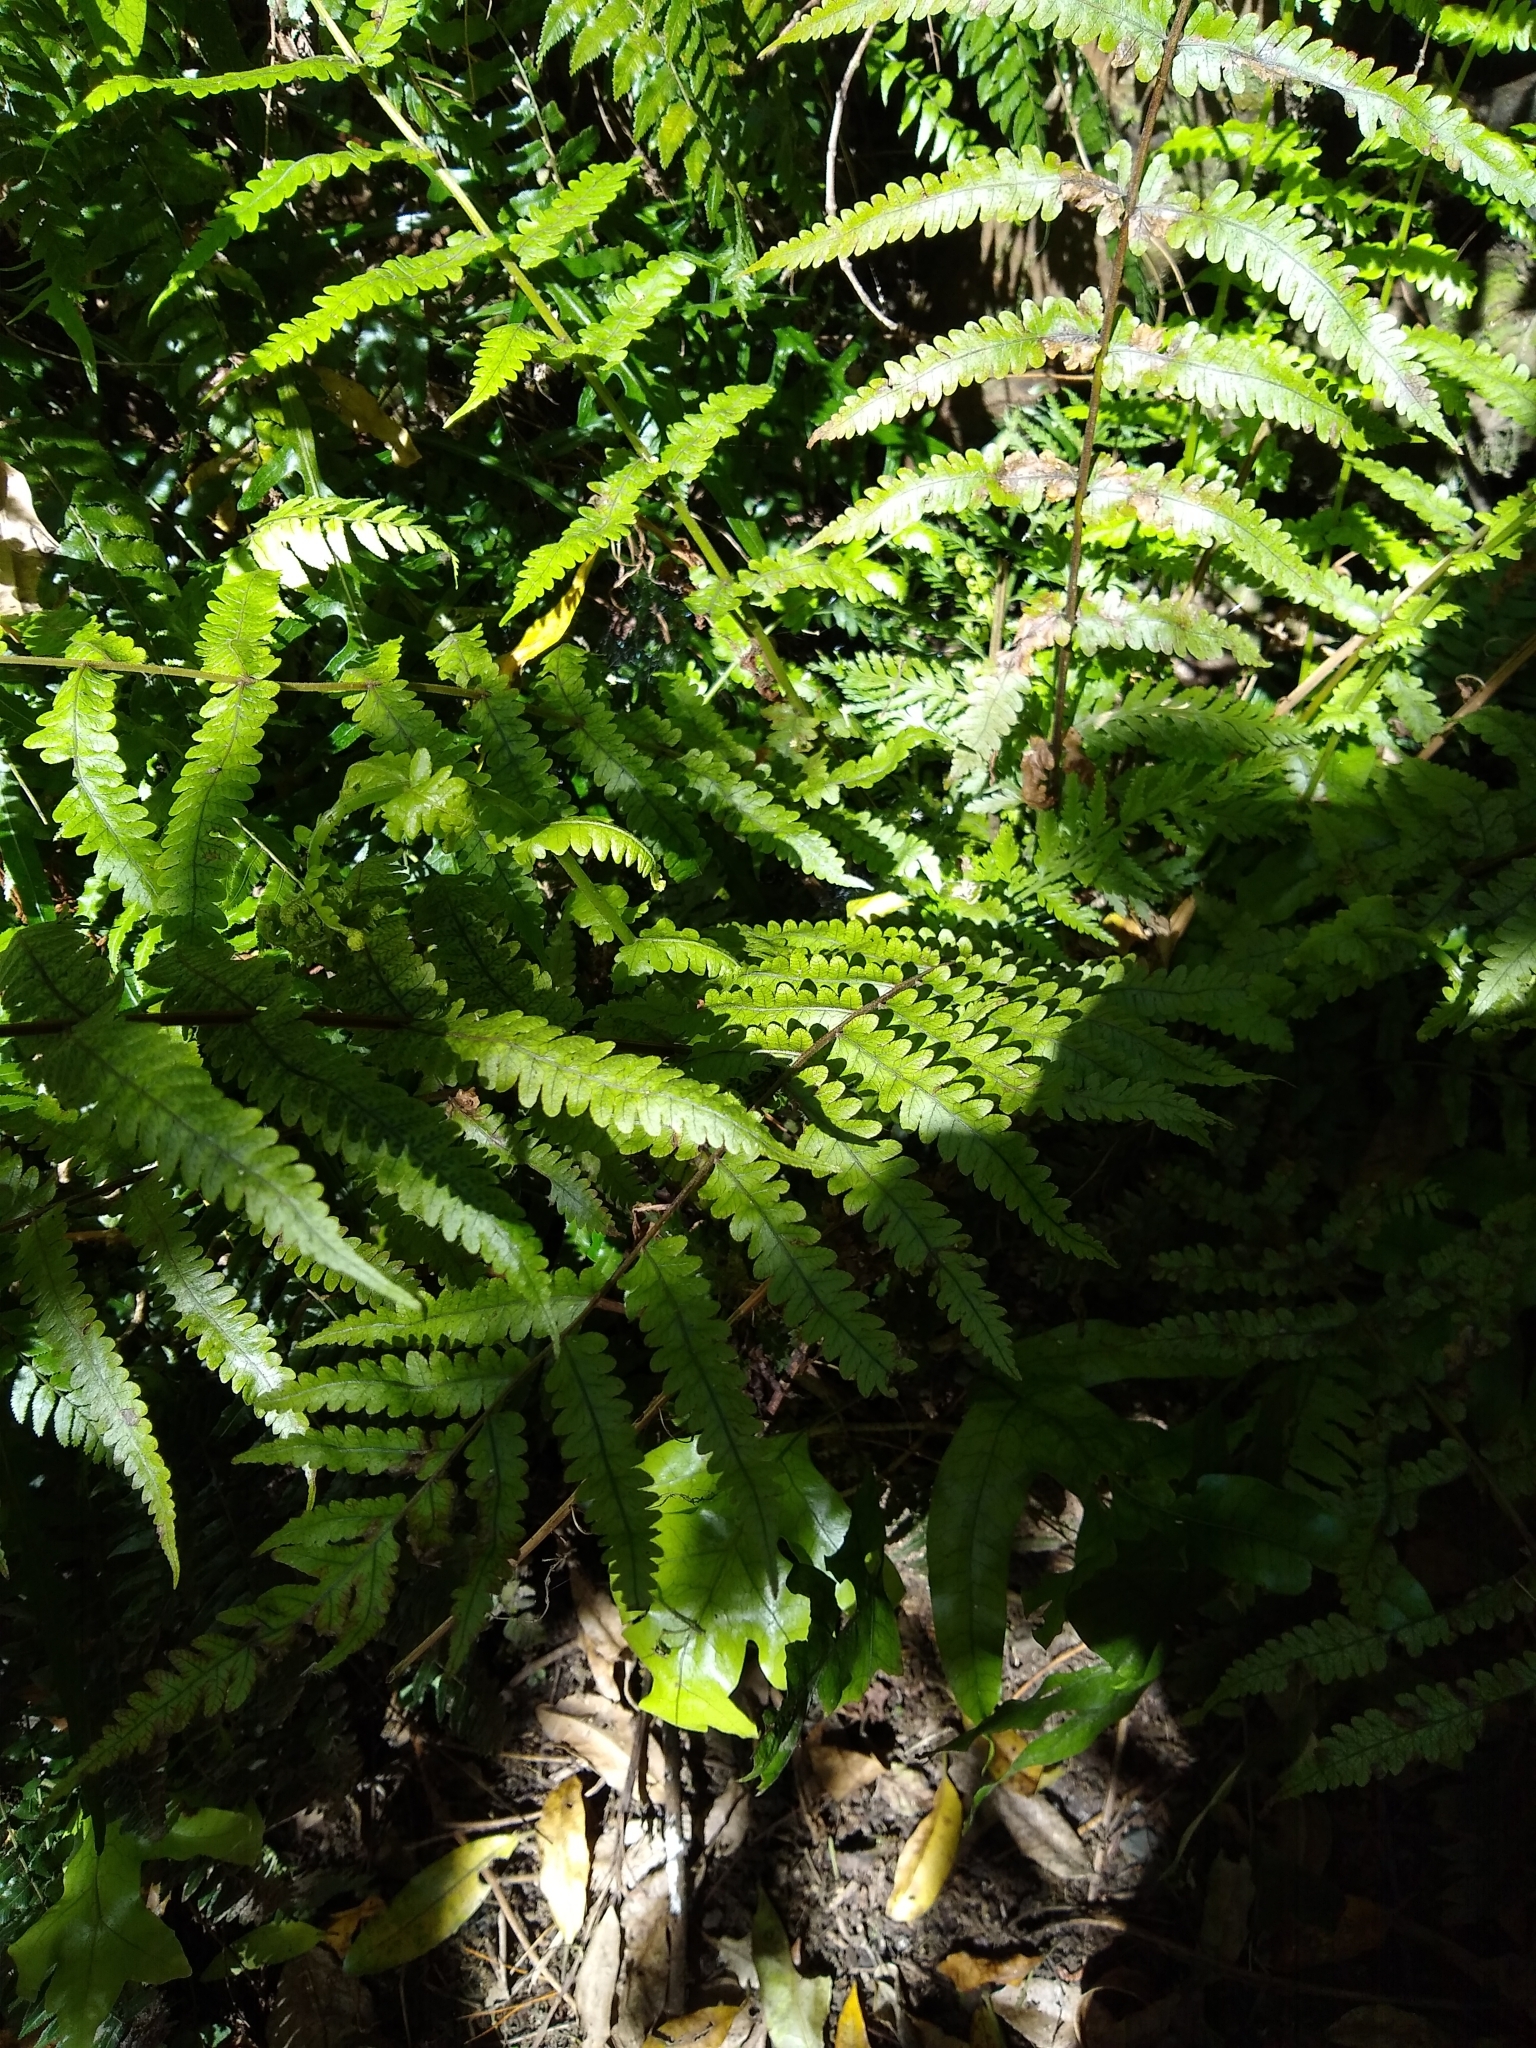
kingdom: Plantae
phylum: Tracheophyta
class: Polypodiopsida
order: Polypodiales
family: Thelypteridaceae
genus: Pakau
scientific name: Pakau pennigera
